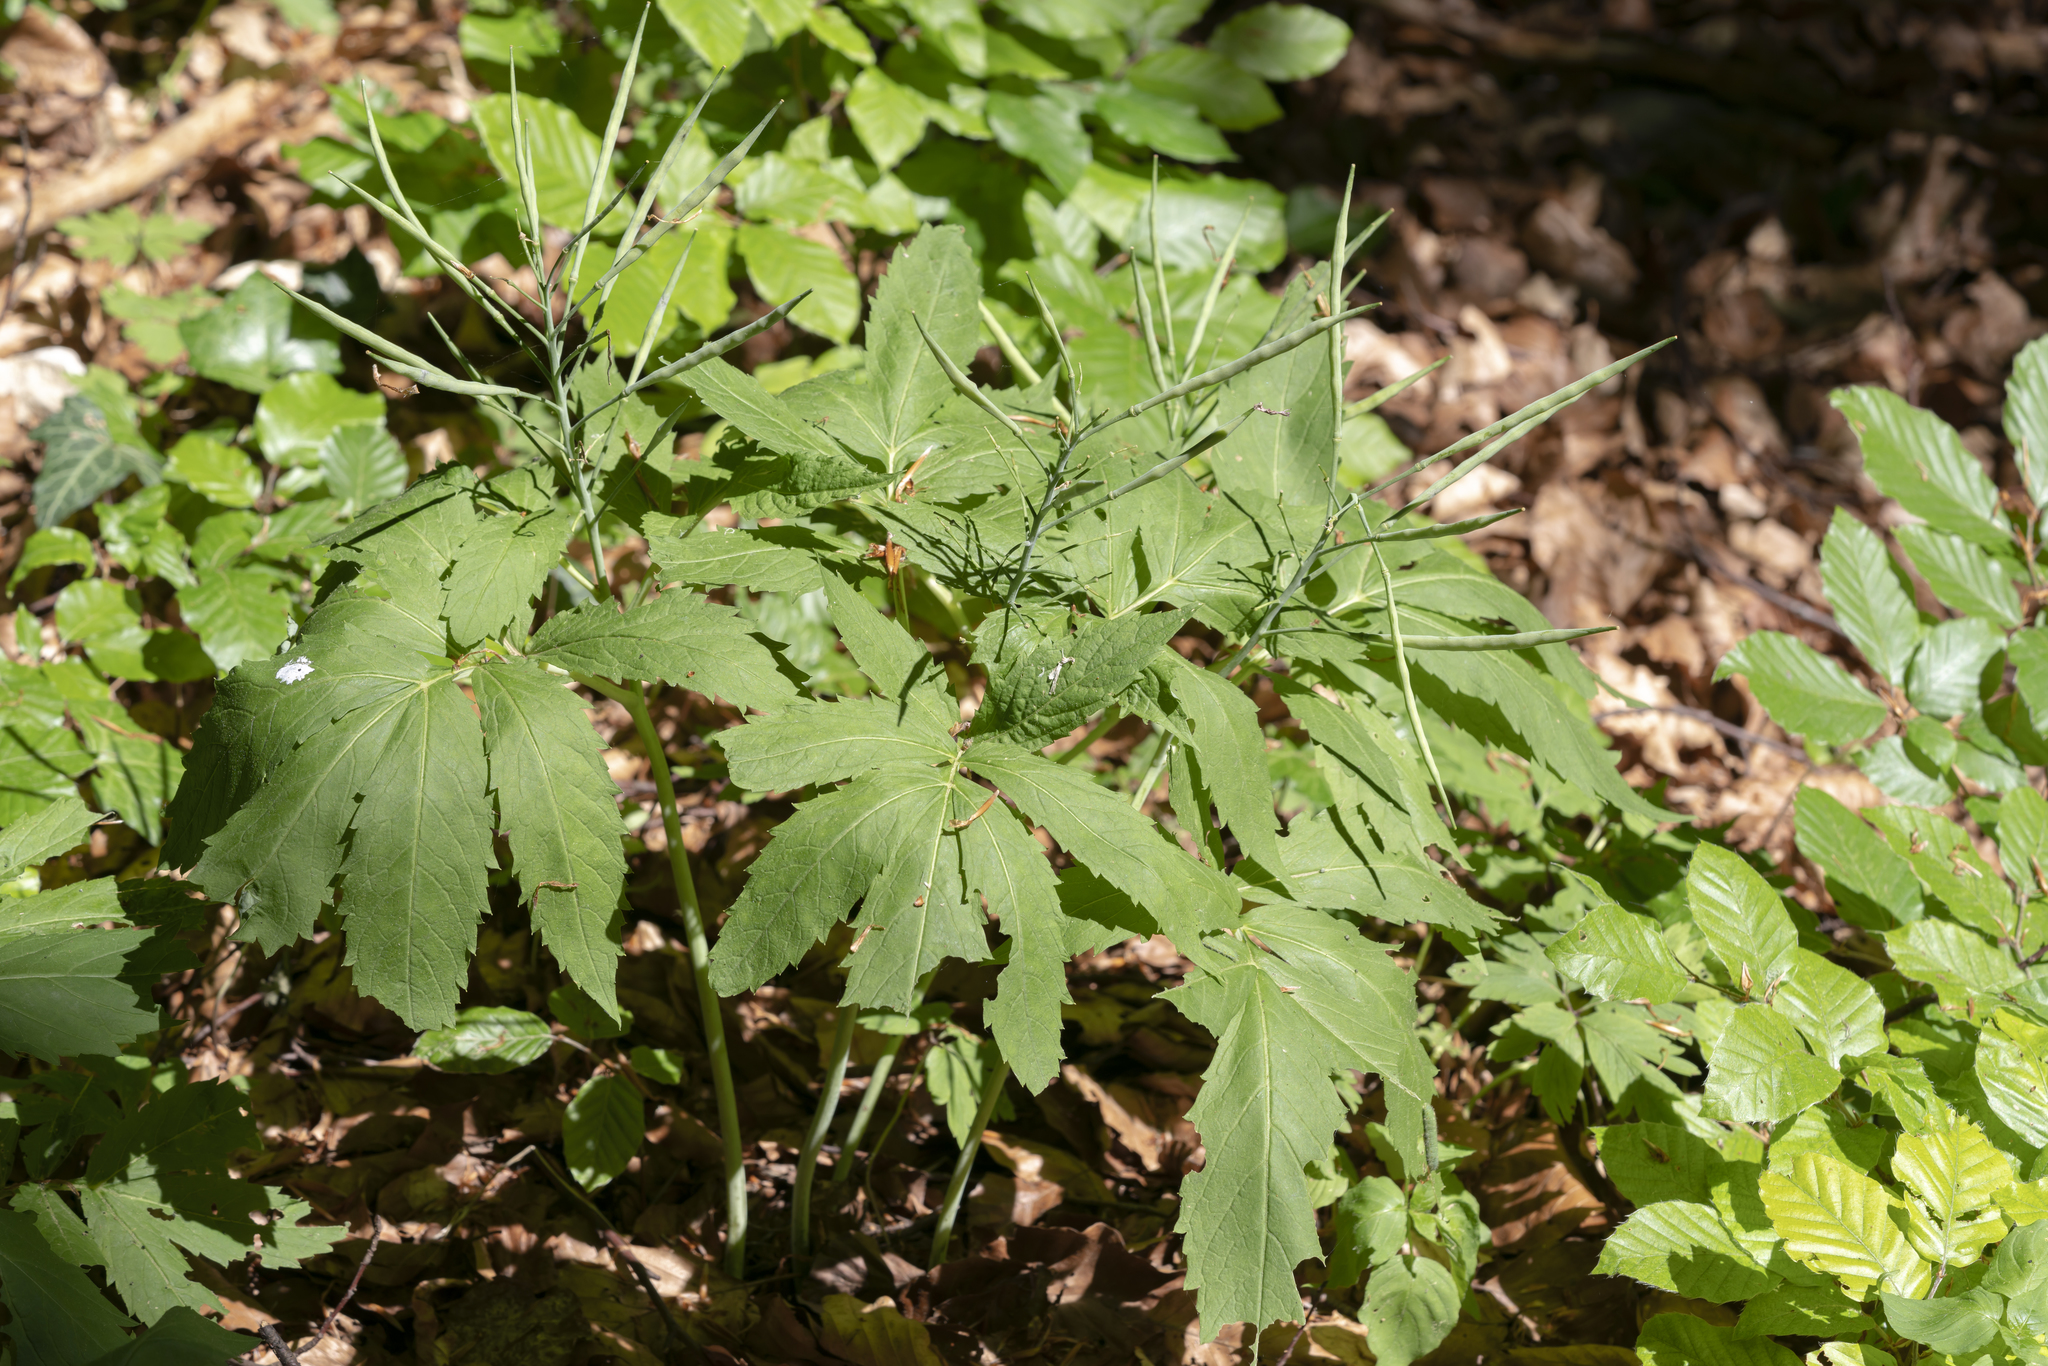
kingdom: Plantae
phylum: Tracheophyta
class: Magnoliopsida
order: Brassicales
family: Brassicaceae
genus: Cardamine
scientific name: Cardamine heptaphylla
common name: Pinnate coralroot
